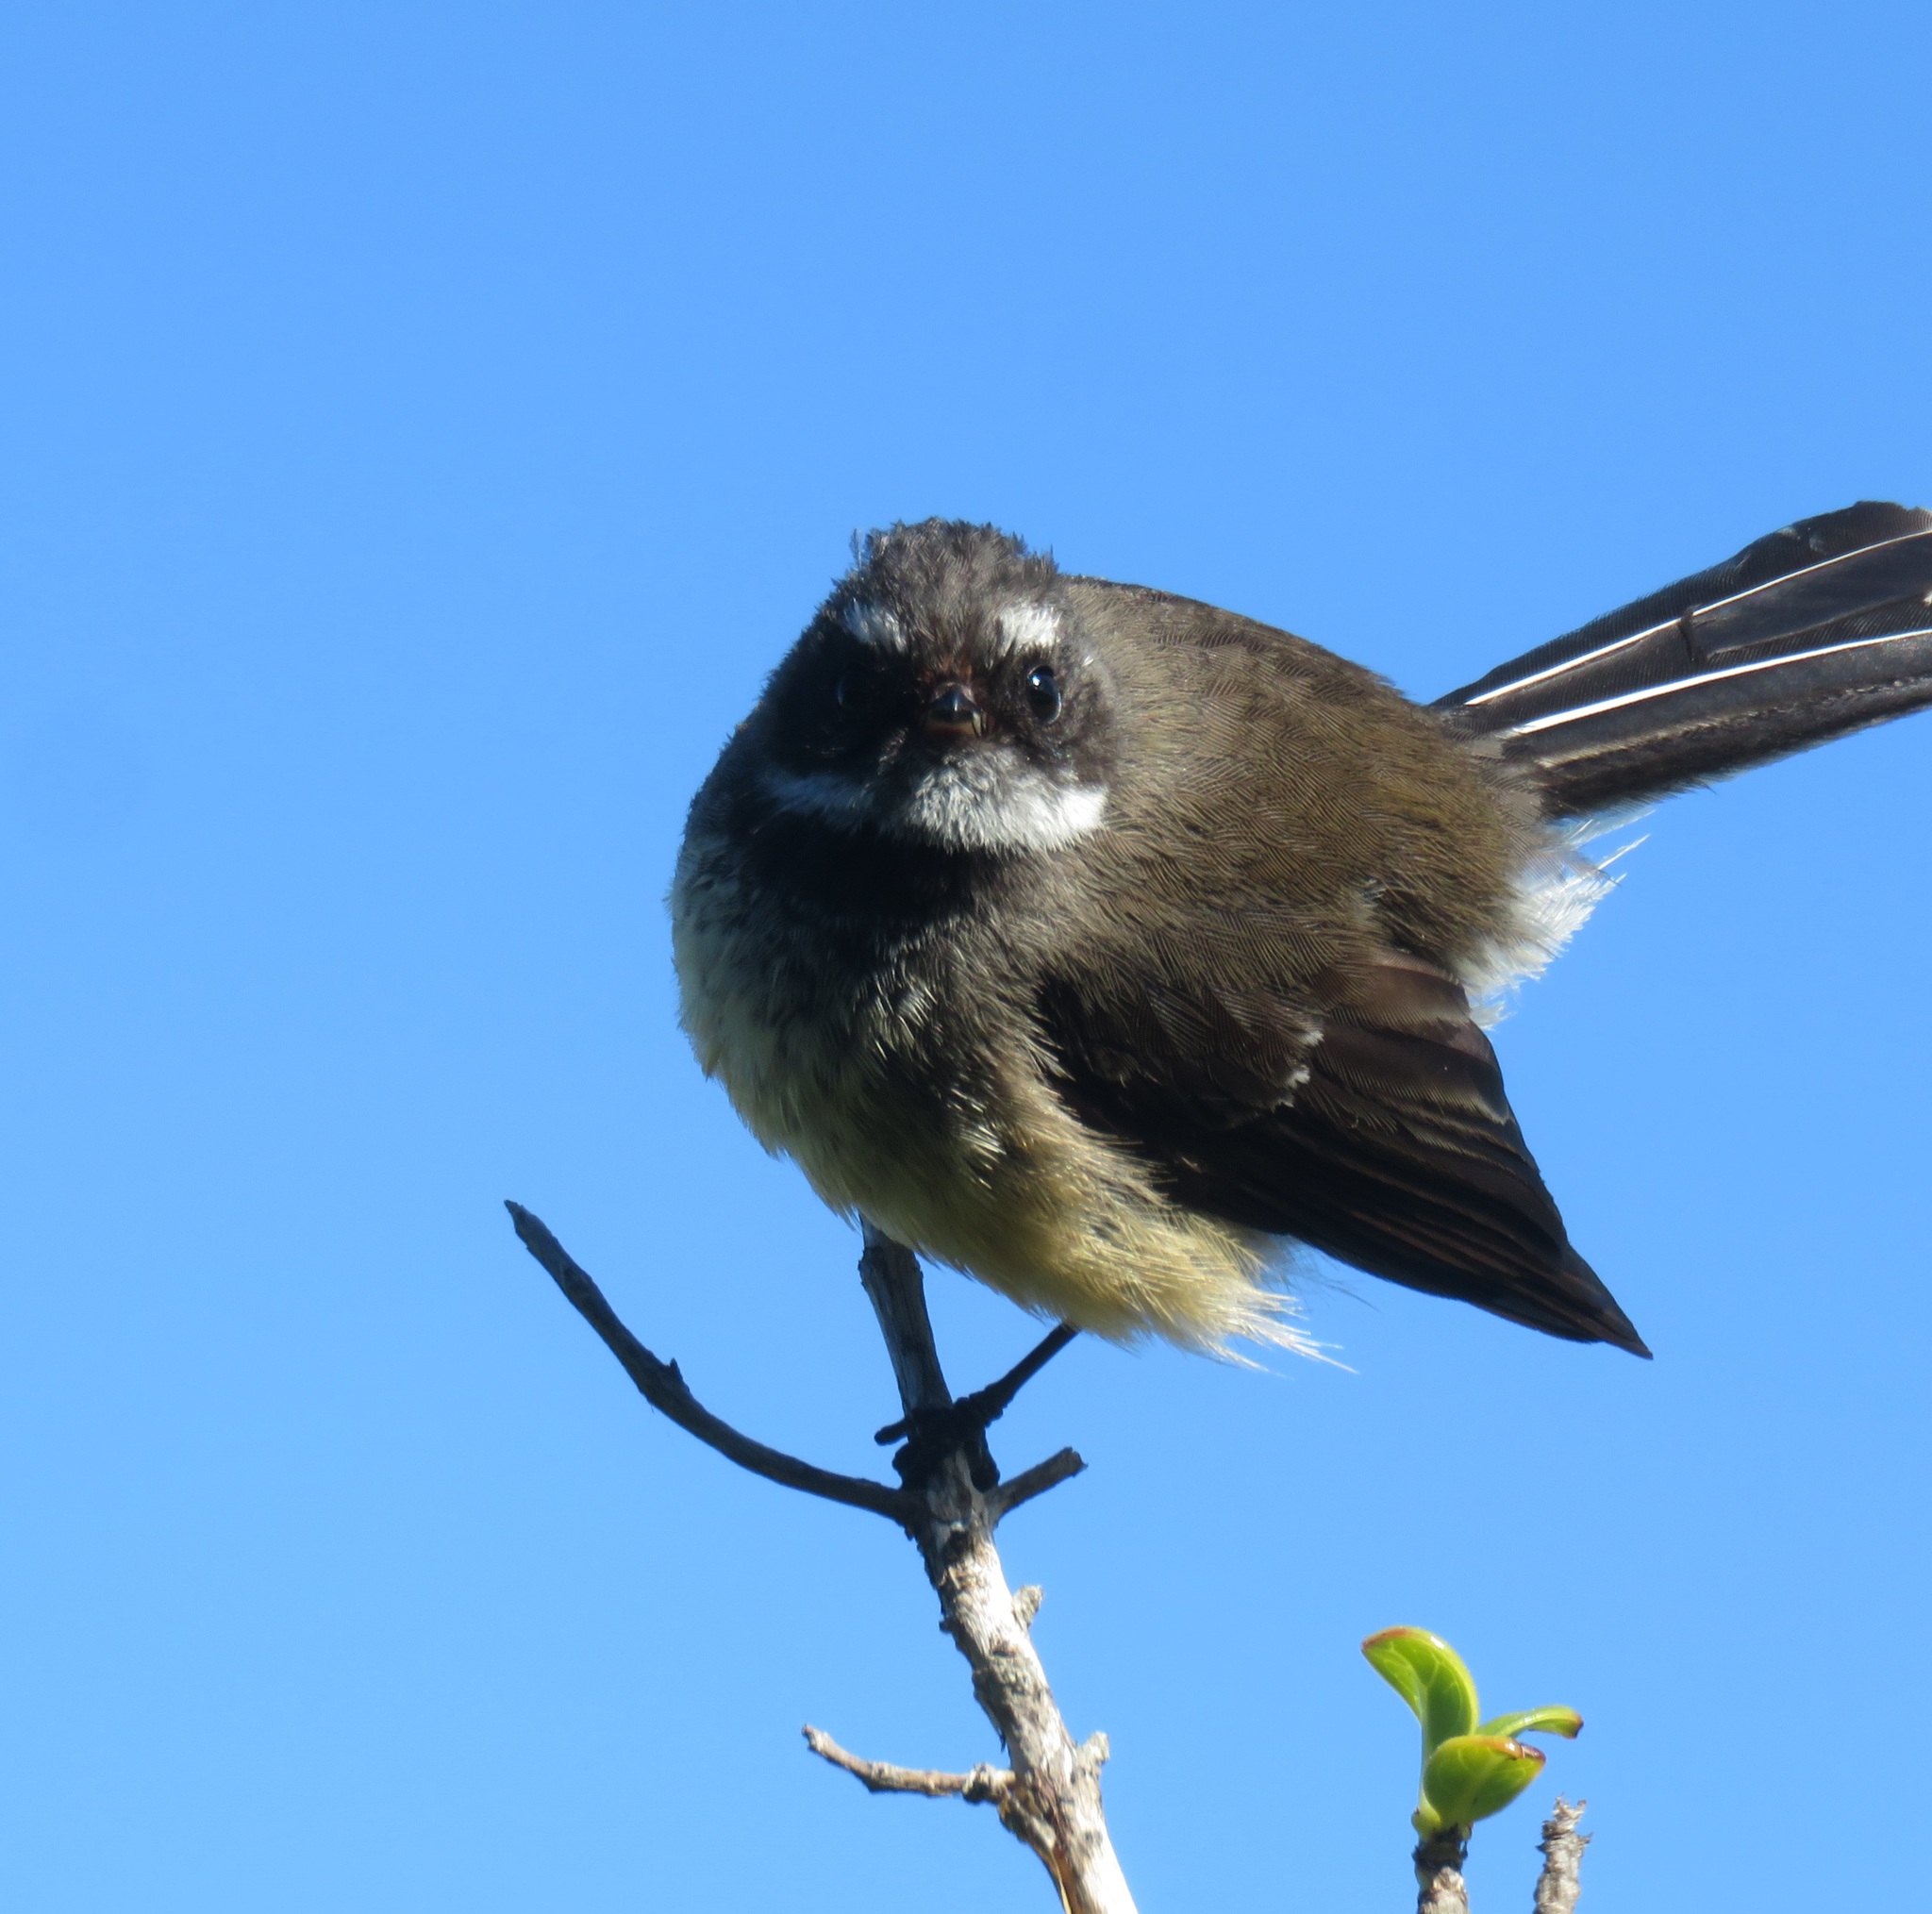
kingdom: Animalia
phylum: Chordata
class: Aves
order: Passeriformes
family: Rhipiduridae
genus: Rhipidura
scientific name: Rhipidura fuliginosa
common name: New zealand fantail
